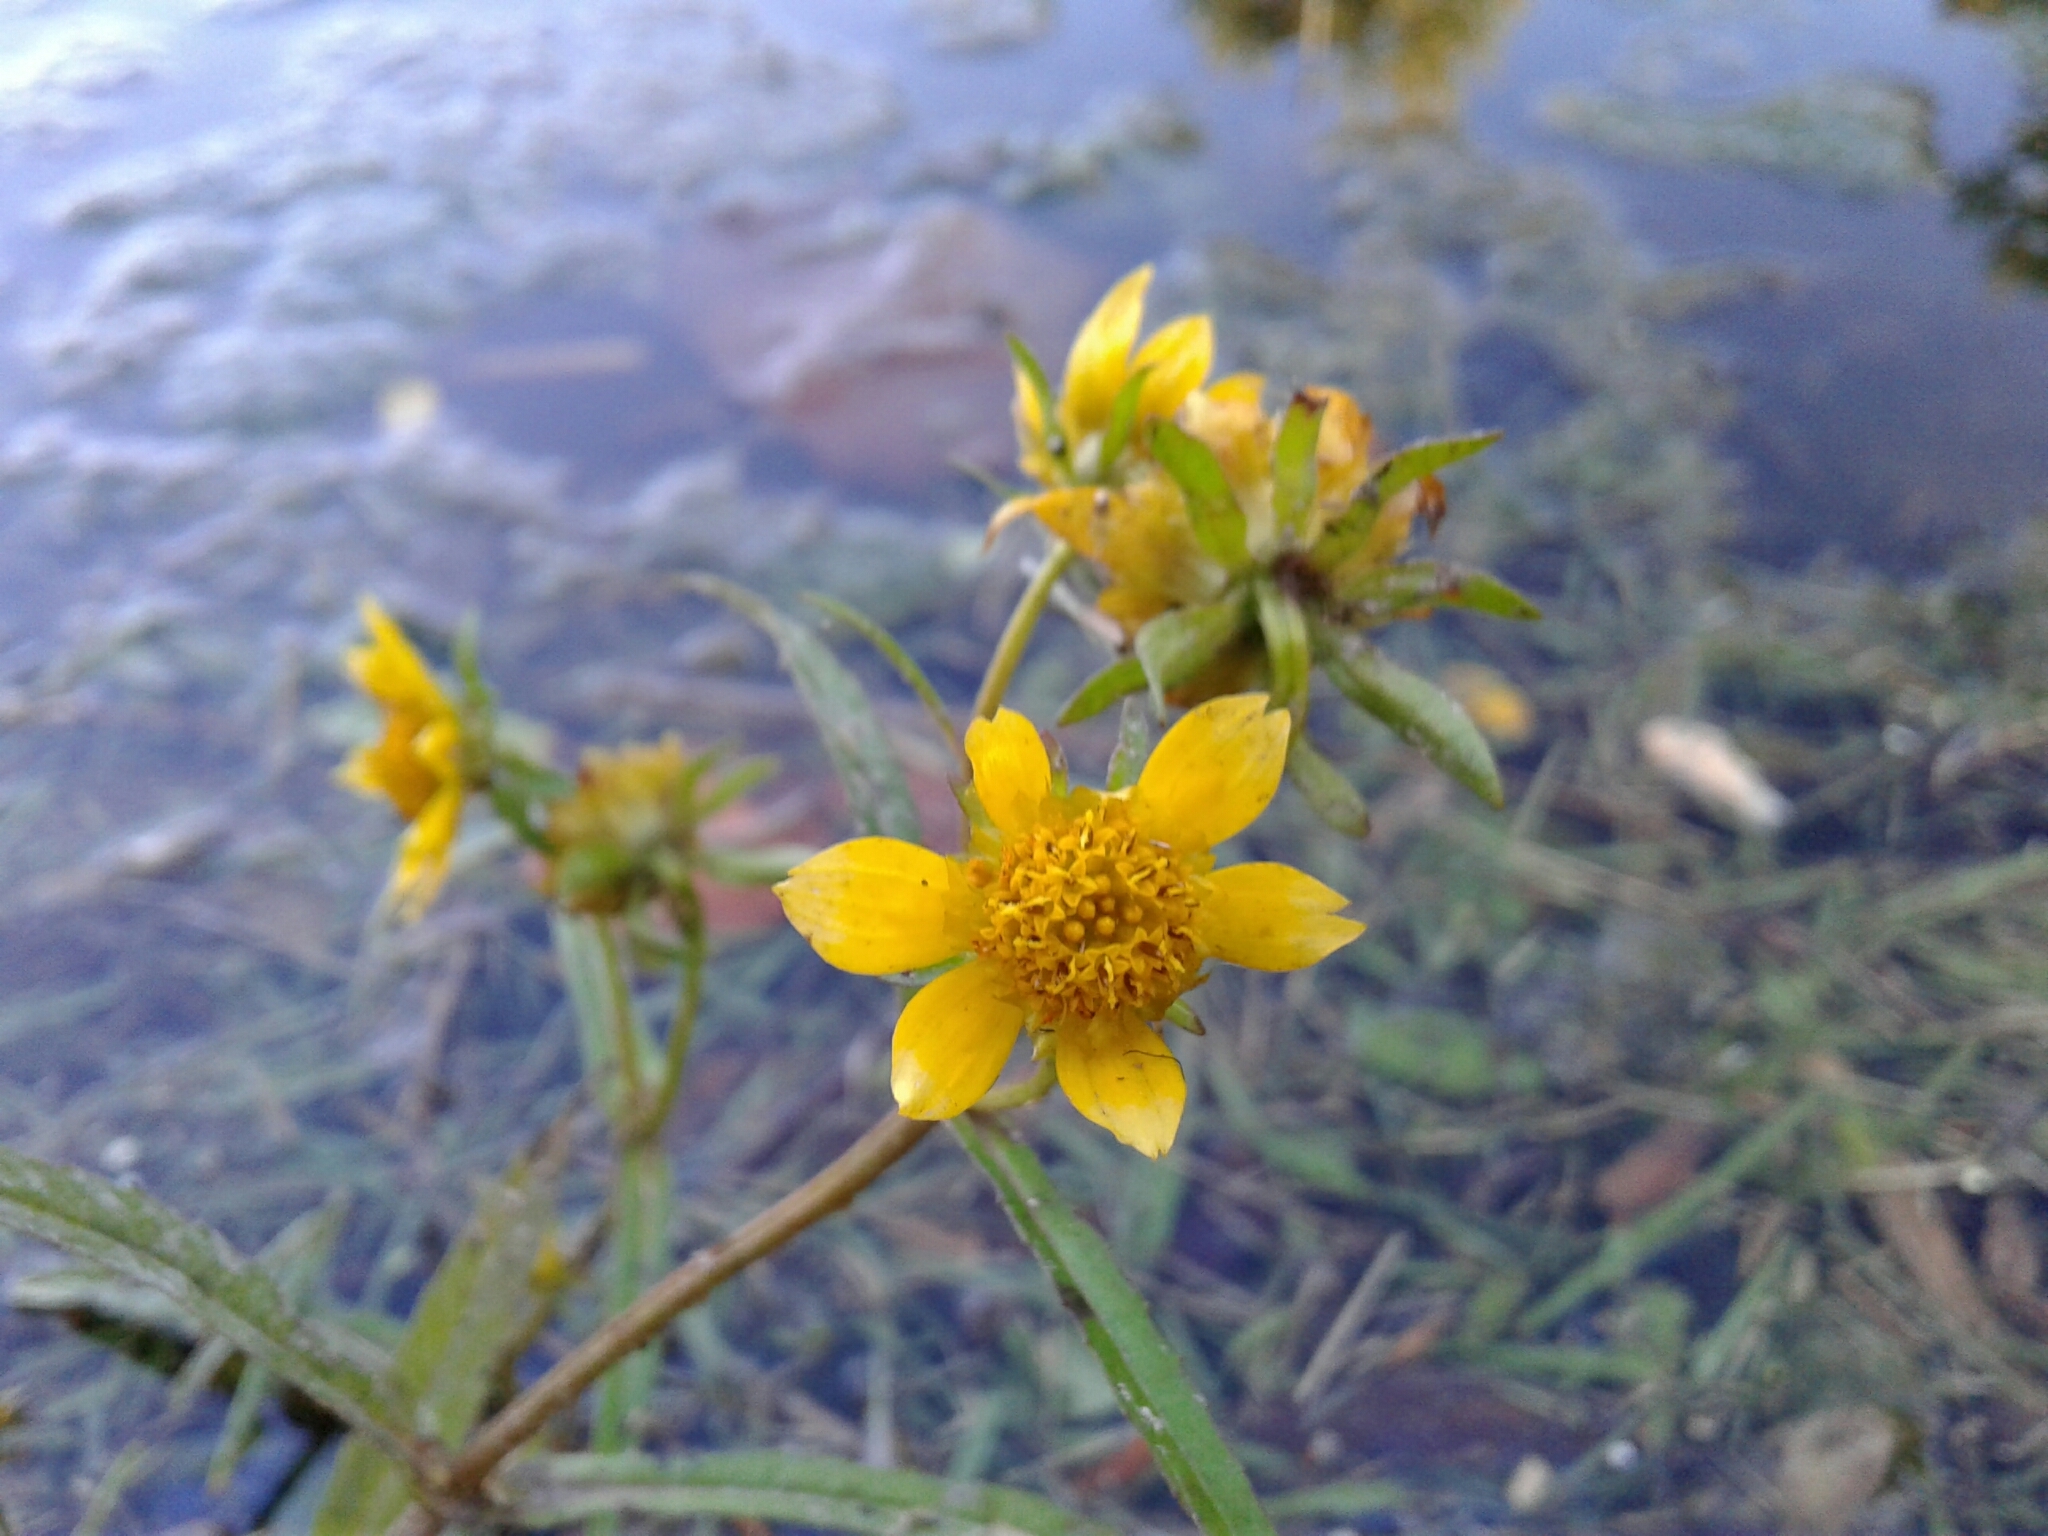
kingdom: Plantae
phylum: Tracheophyta
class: Magnoliopsida
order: Asterales
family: Asteraceae
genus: Bidens
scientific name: Bidens cernua
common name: Nodding bur-marigold
